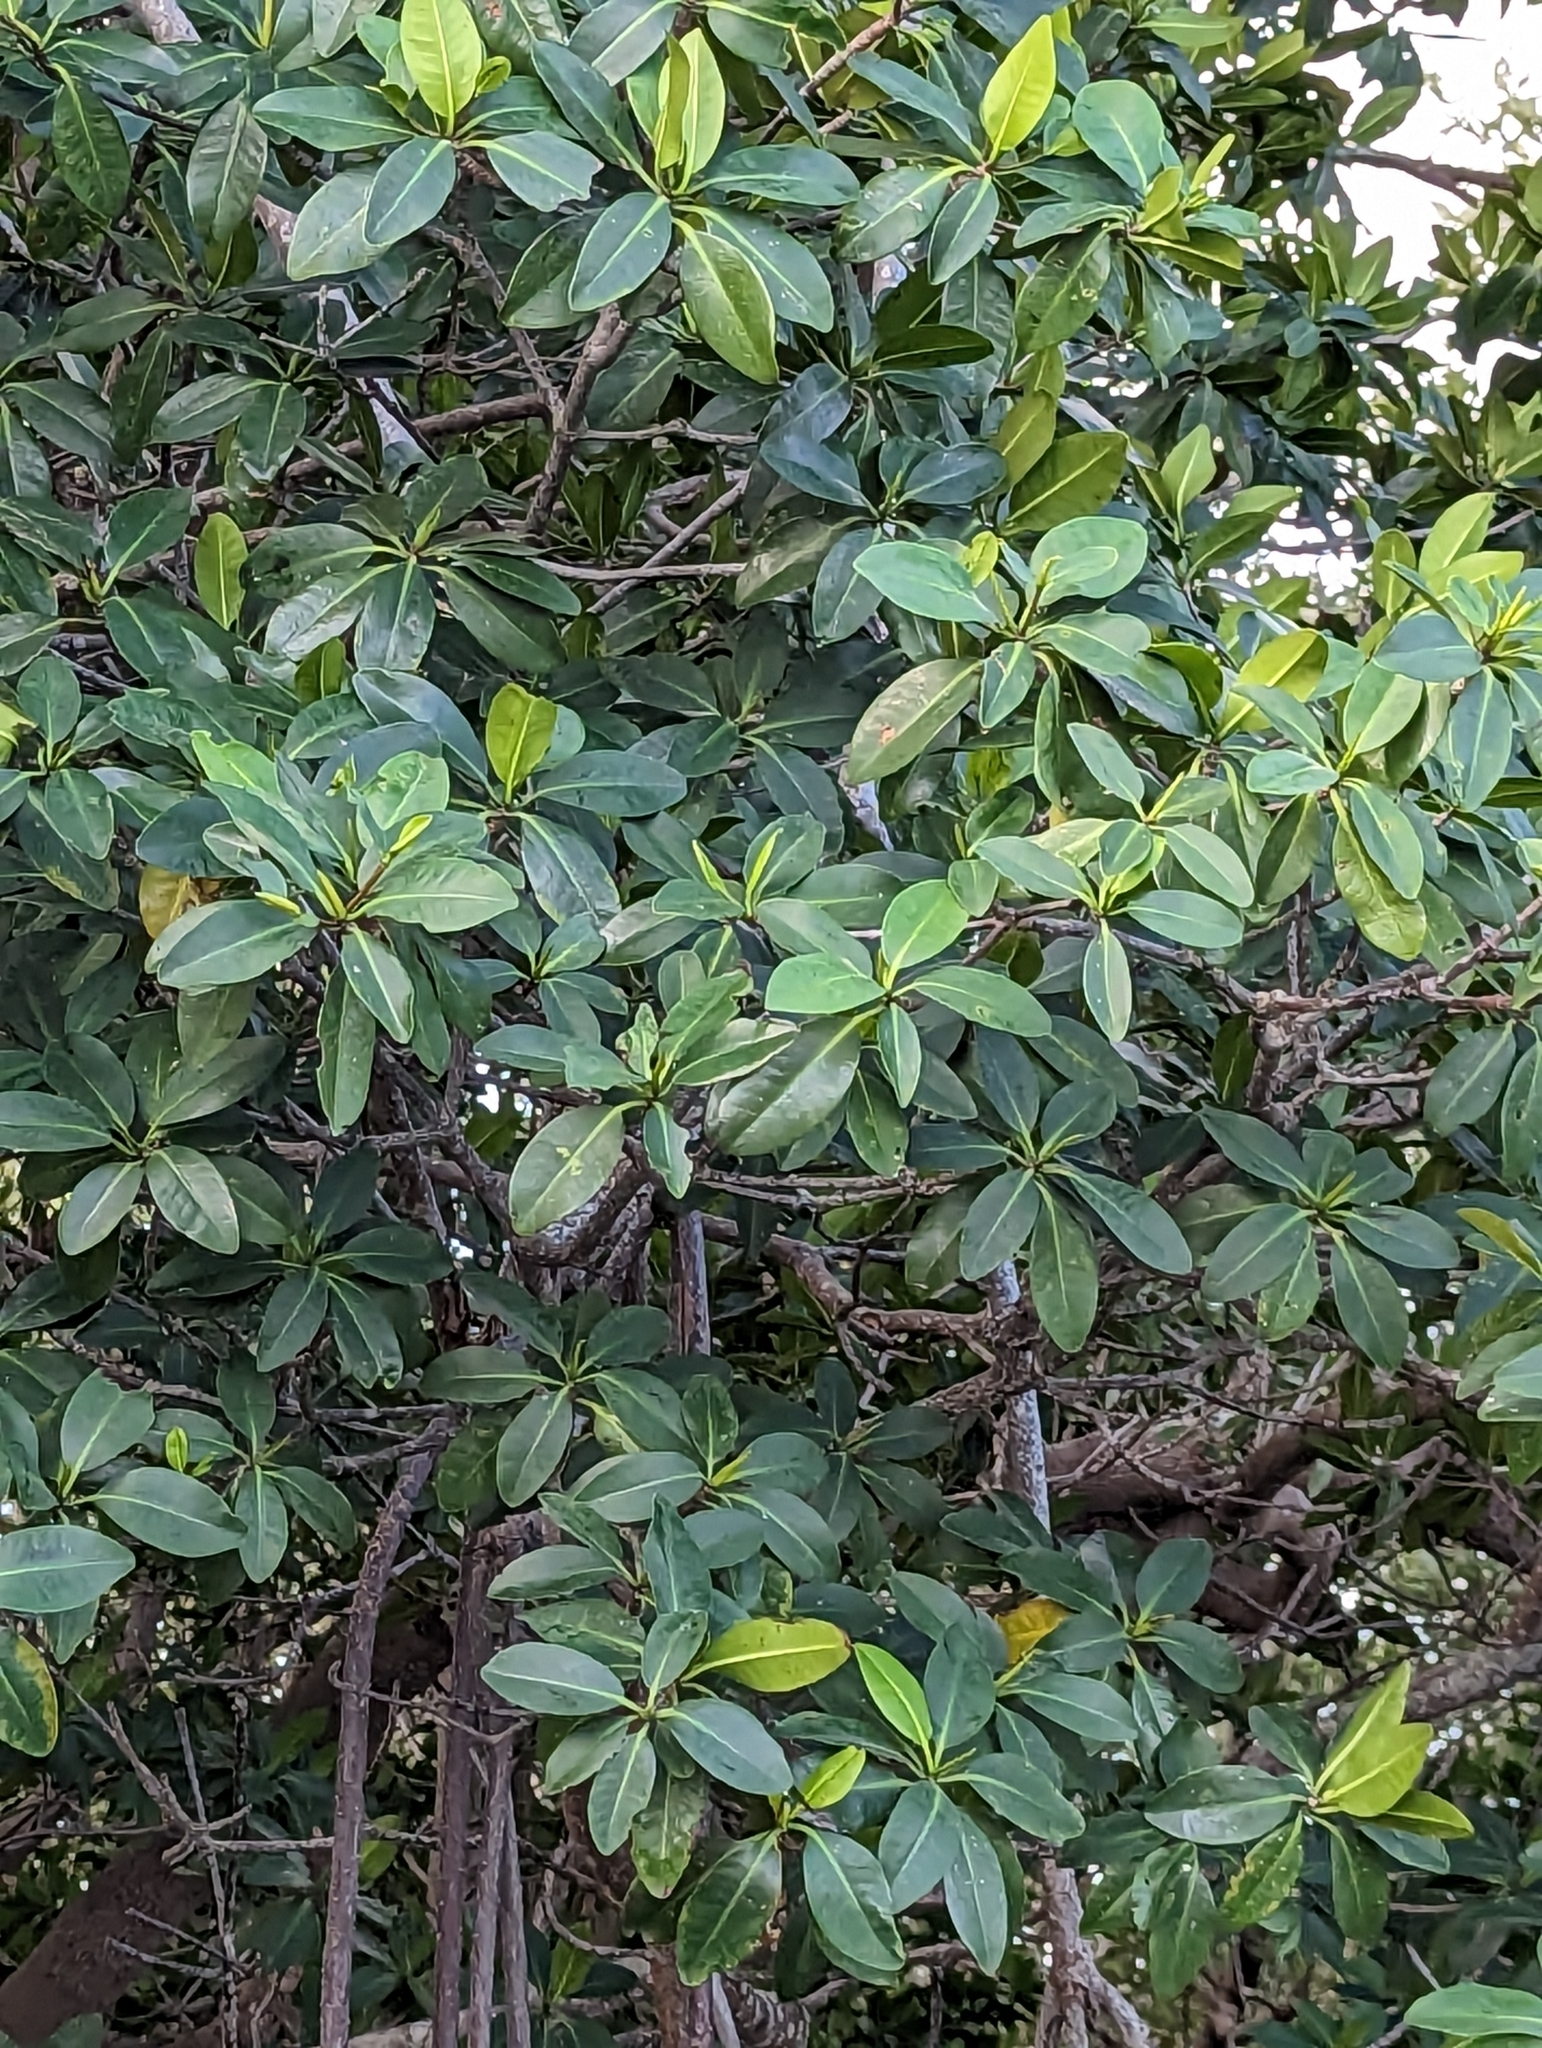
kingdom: Plantae
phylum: Tracheophyta
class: Magnoliopsida
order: Malpighiales
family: Rhizophoraceae
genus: Rhizophora
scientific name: Rhizophora mangle
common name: Red mangrove
